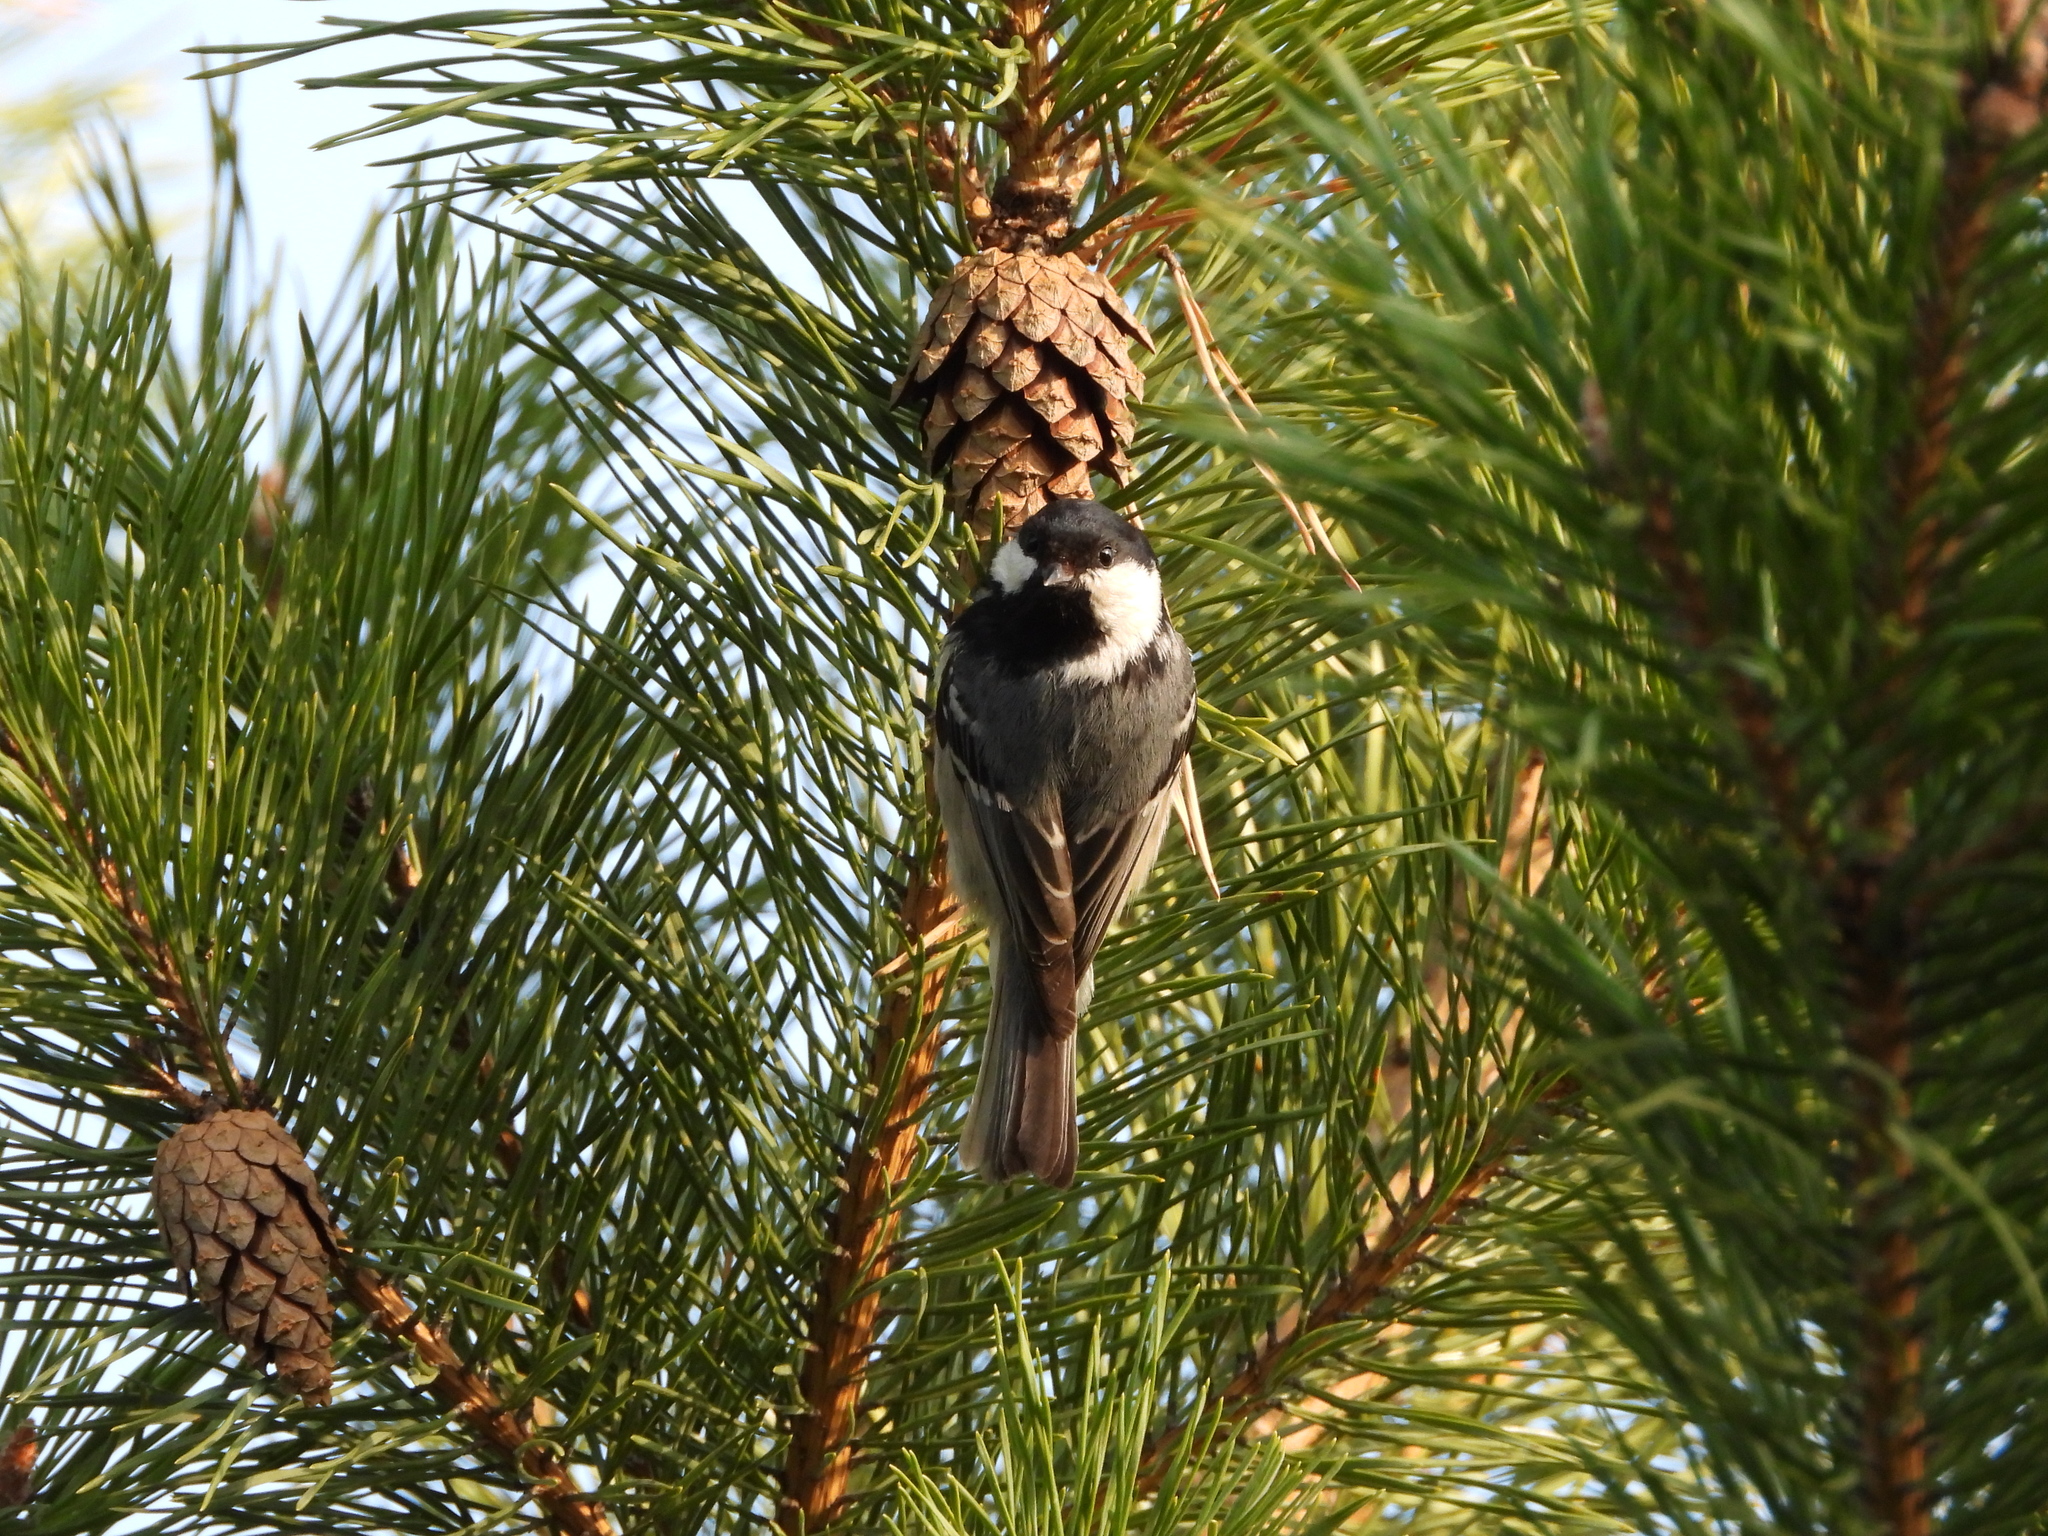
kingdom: Animalia
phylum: Chordata
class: Aves
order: Passeriformes
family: Paridae
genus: Periparus
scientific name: Periparus ater
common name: Coal tit
